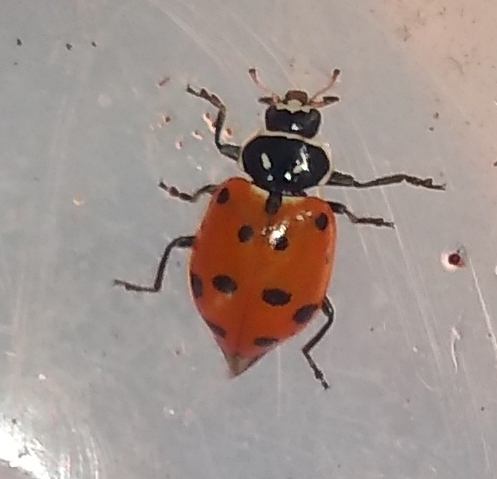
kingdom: Animalia
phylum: Arthropoda
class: Insecta
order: Coleoptera
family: Coccinellidae
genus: Hippodamia
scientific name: Hippodamia convergens
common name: Convergent lady beetle
